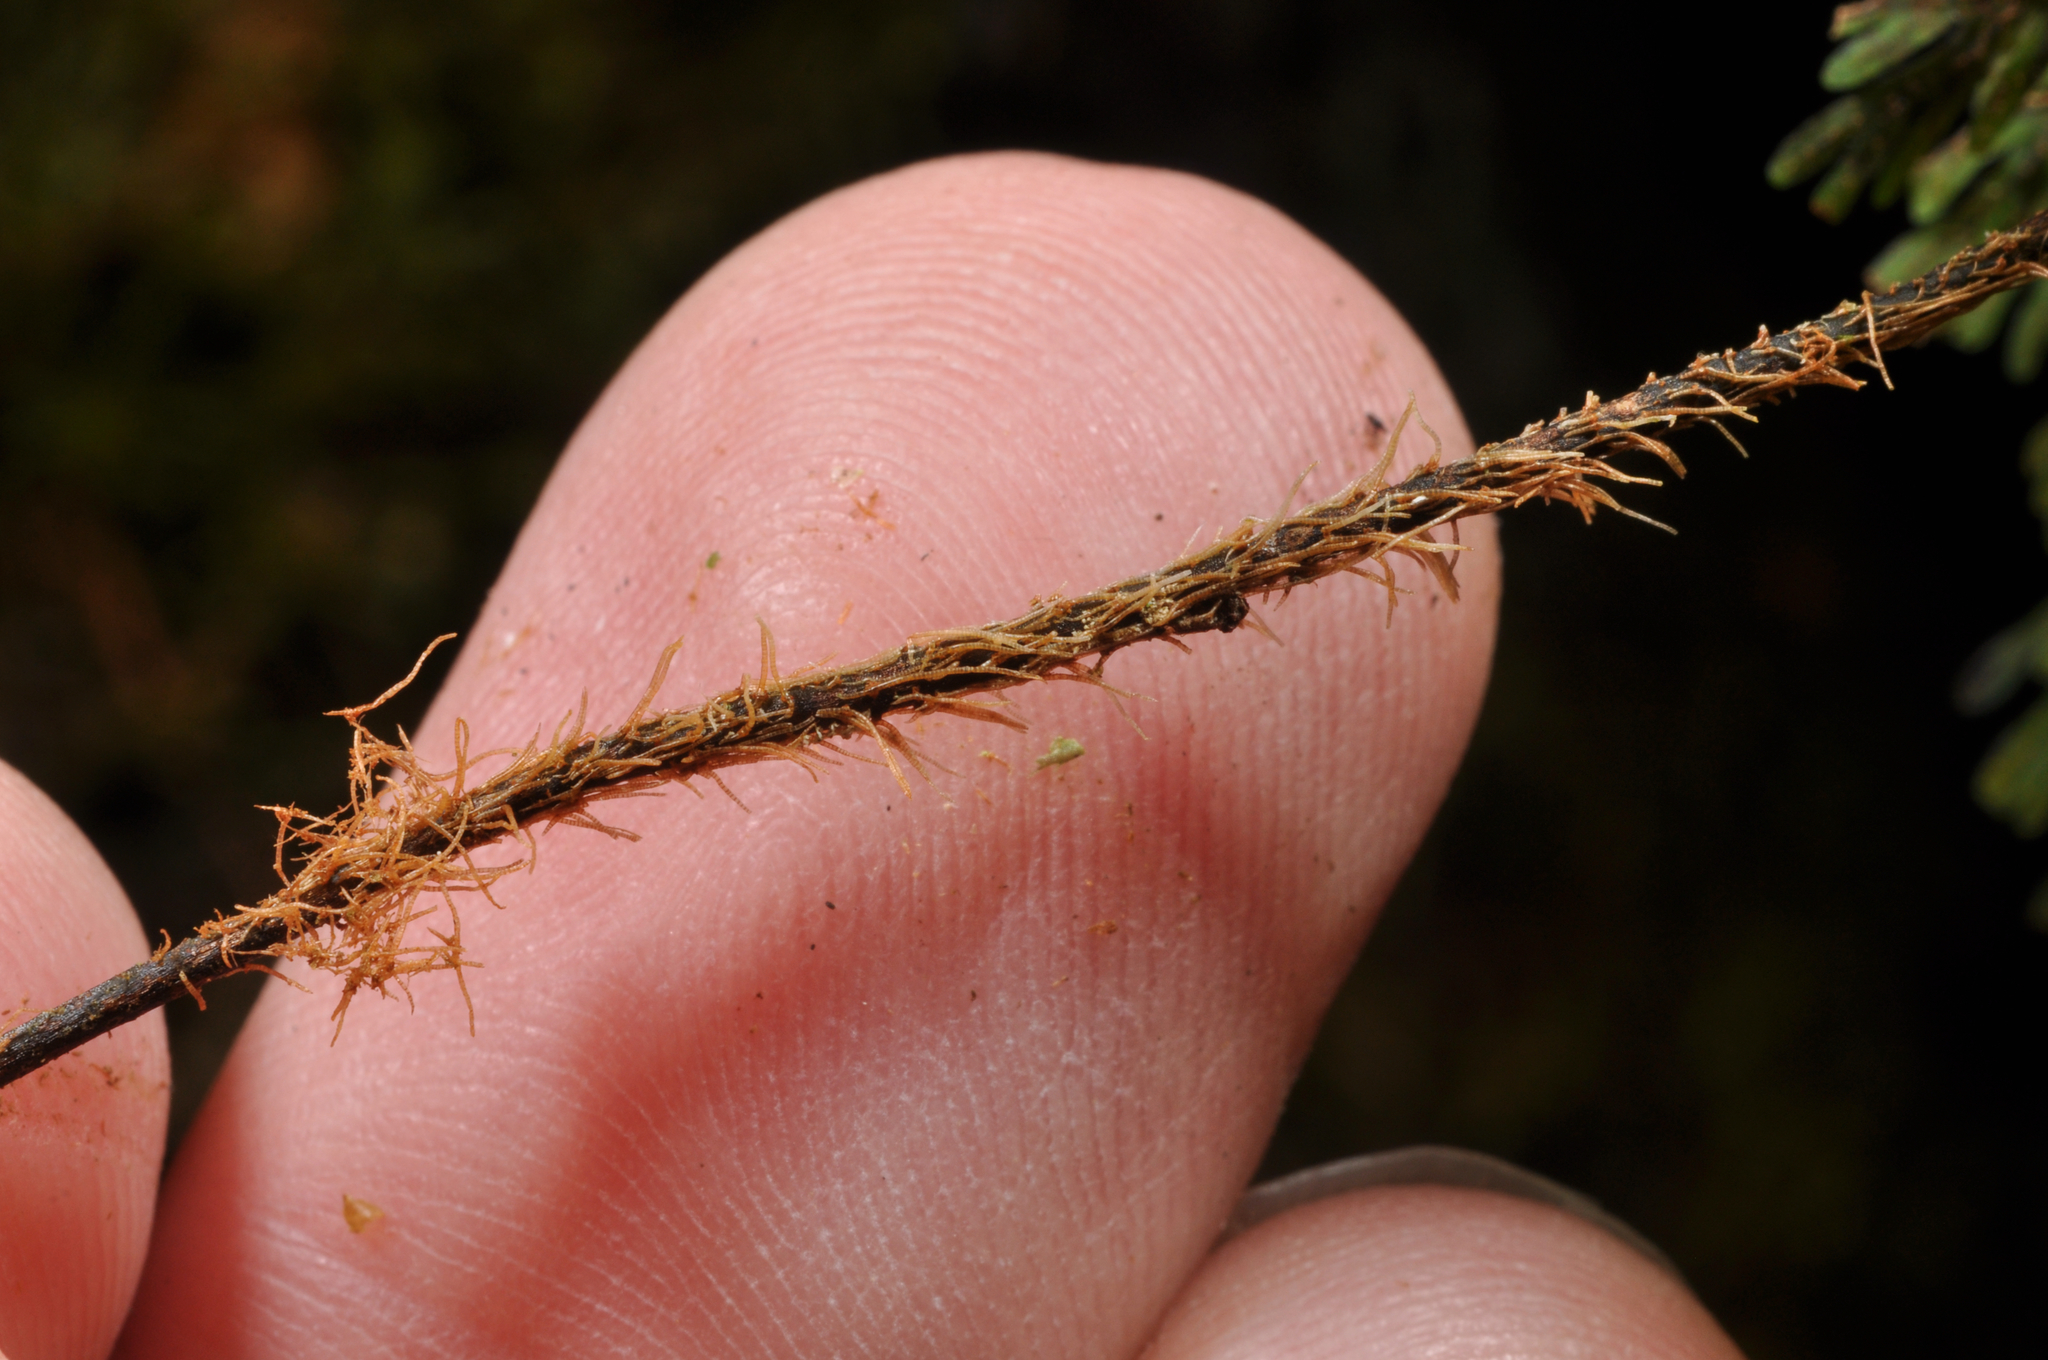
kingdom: Plantae
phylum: Tracheophyta
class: Polypodiopsida
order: Hymenophyllales
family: Hymenophyllaceae
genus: Hymenophyllum
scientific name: Hymenophyllum scabrum
